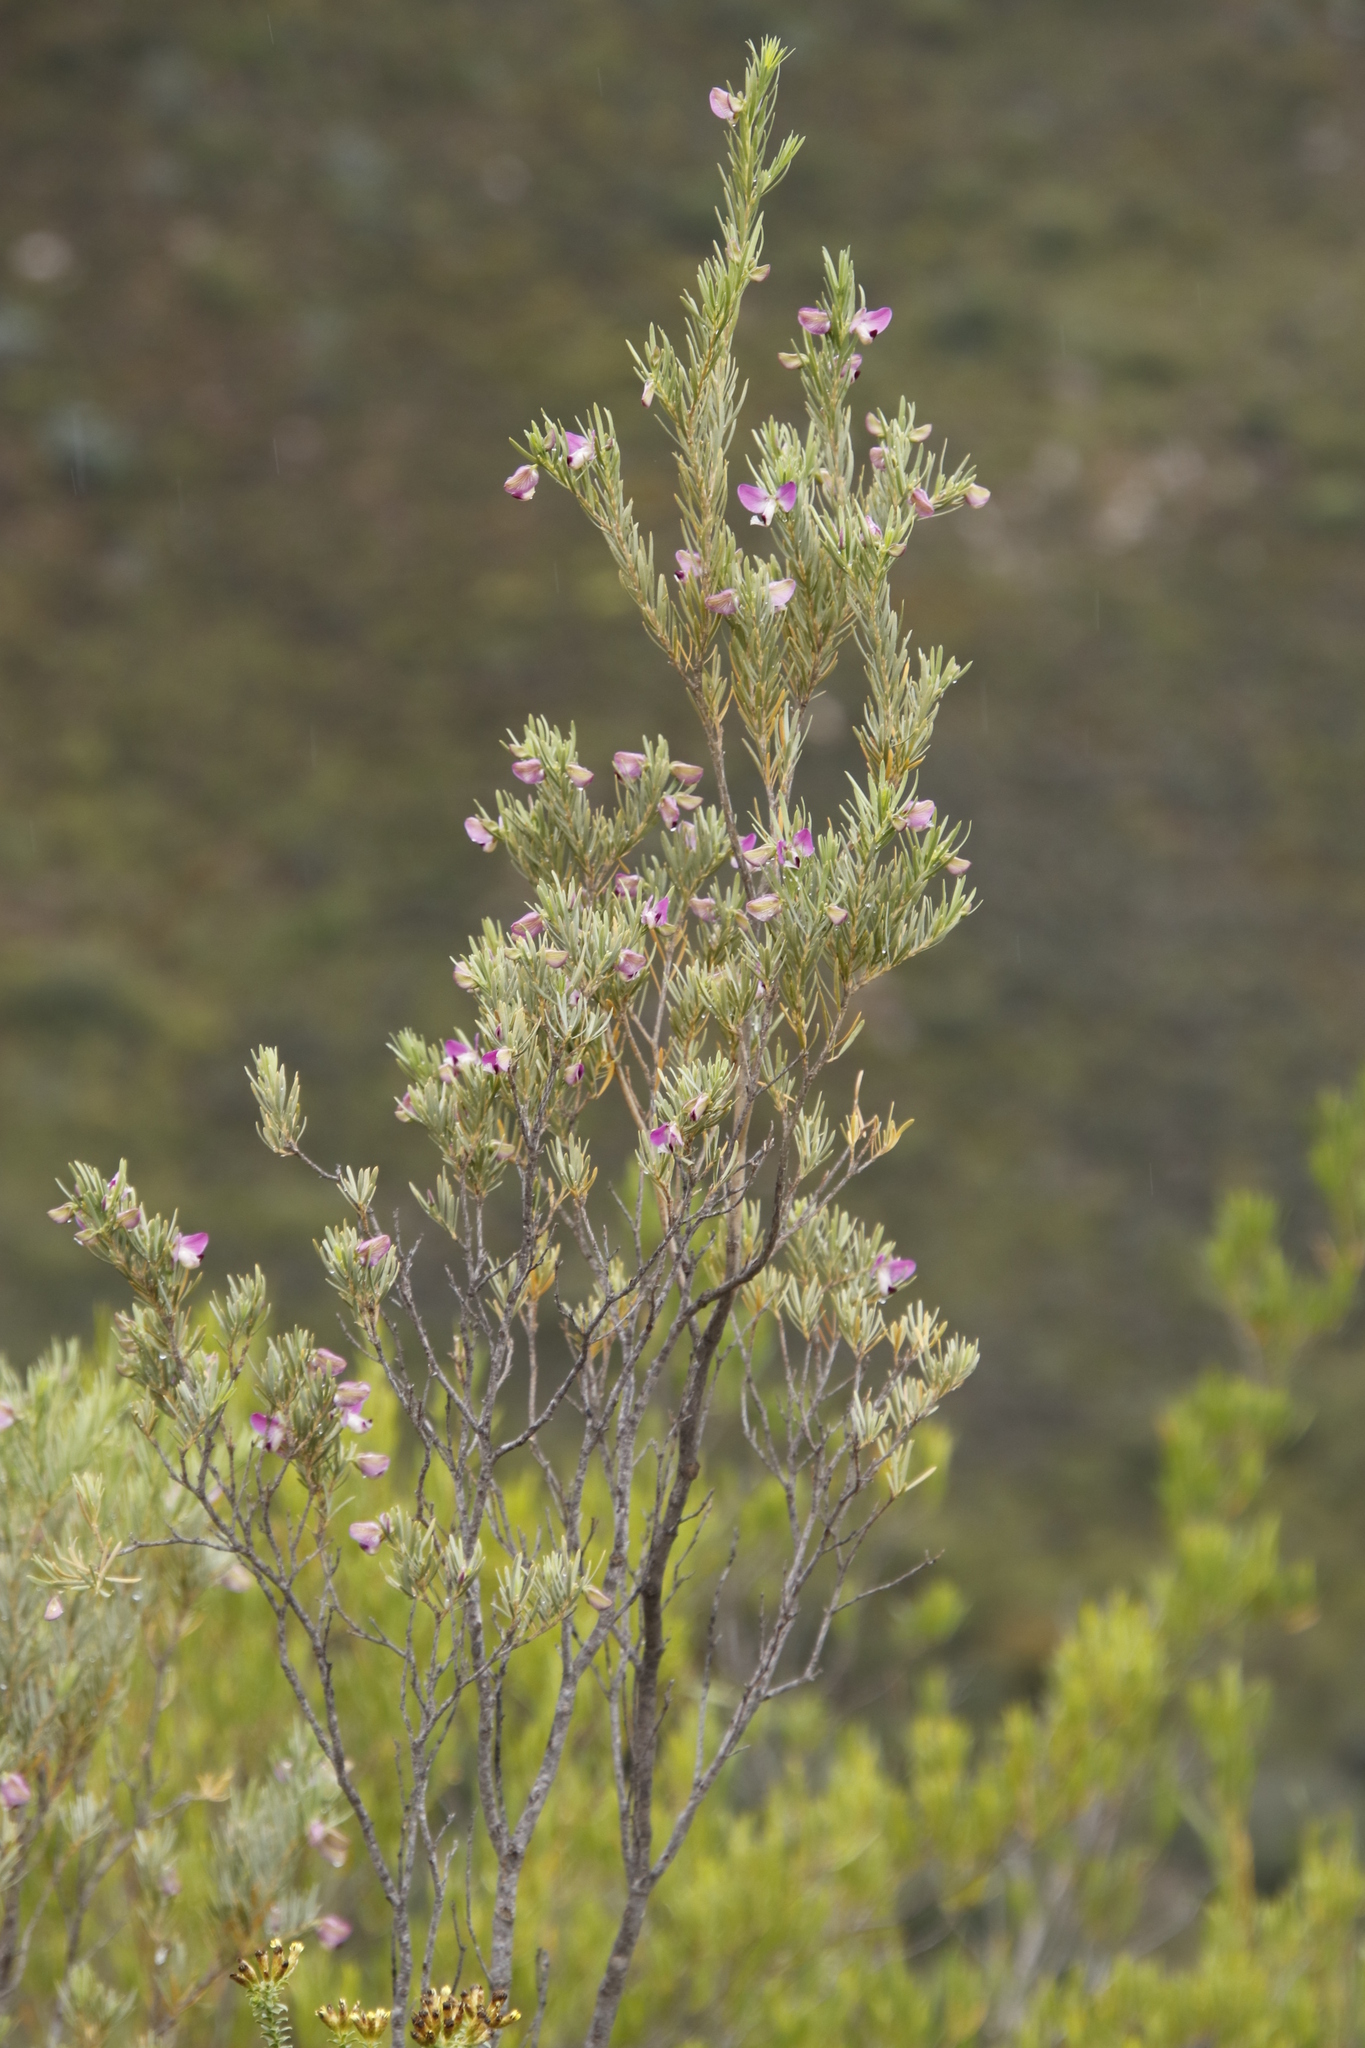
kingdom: Plantae
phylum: Tracheophyta
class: Magnoliopsida
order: Fabales
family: Polygalaceae
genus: Polygala
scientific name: Polygala myrtifolia
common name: Myrtle-leaf milkwort
